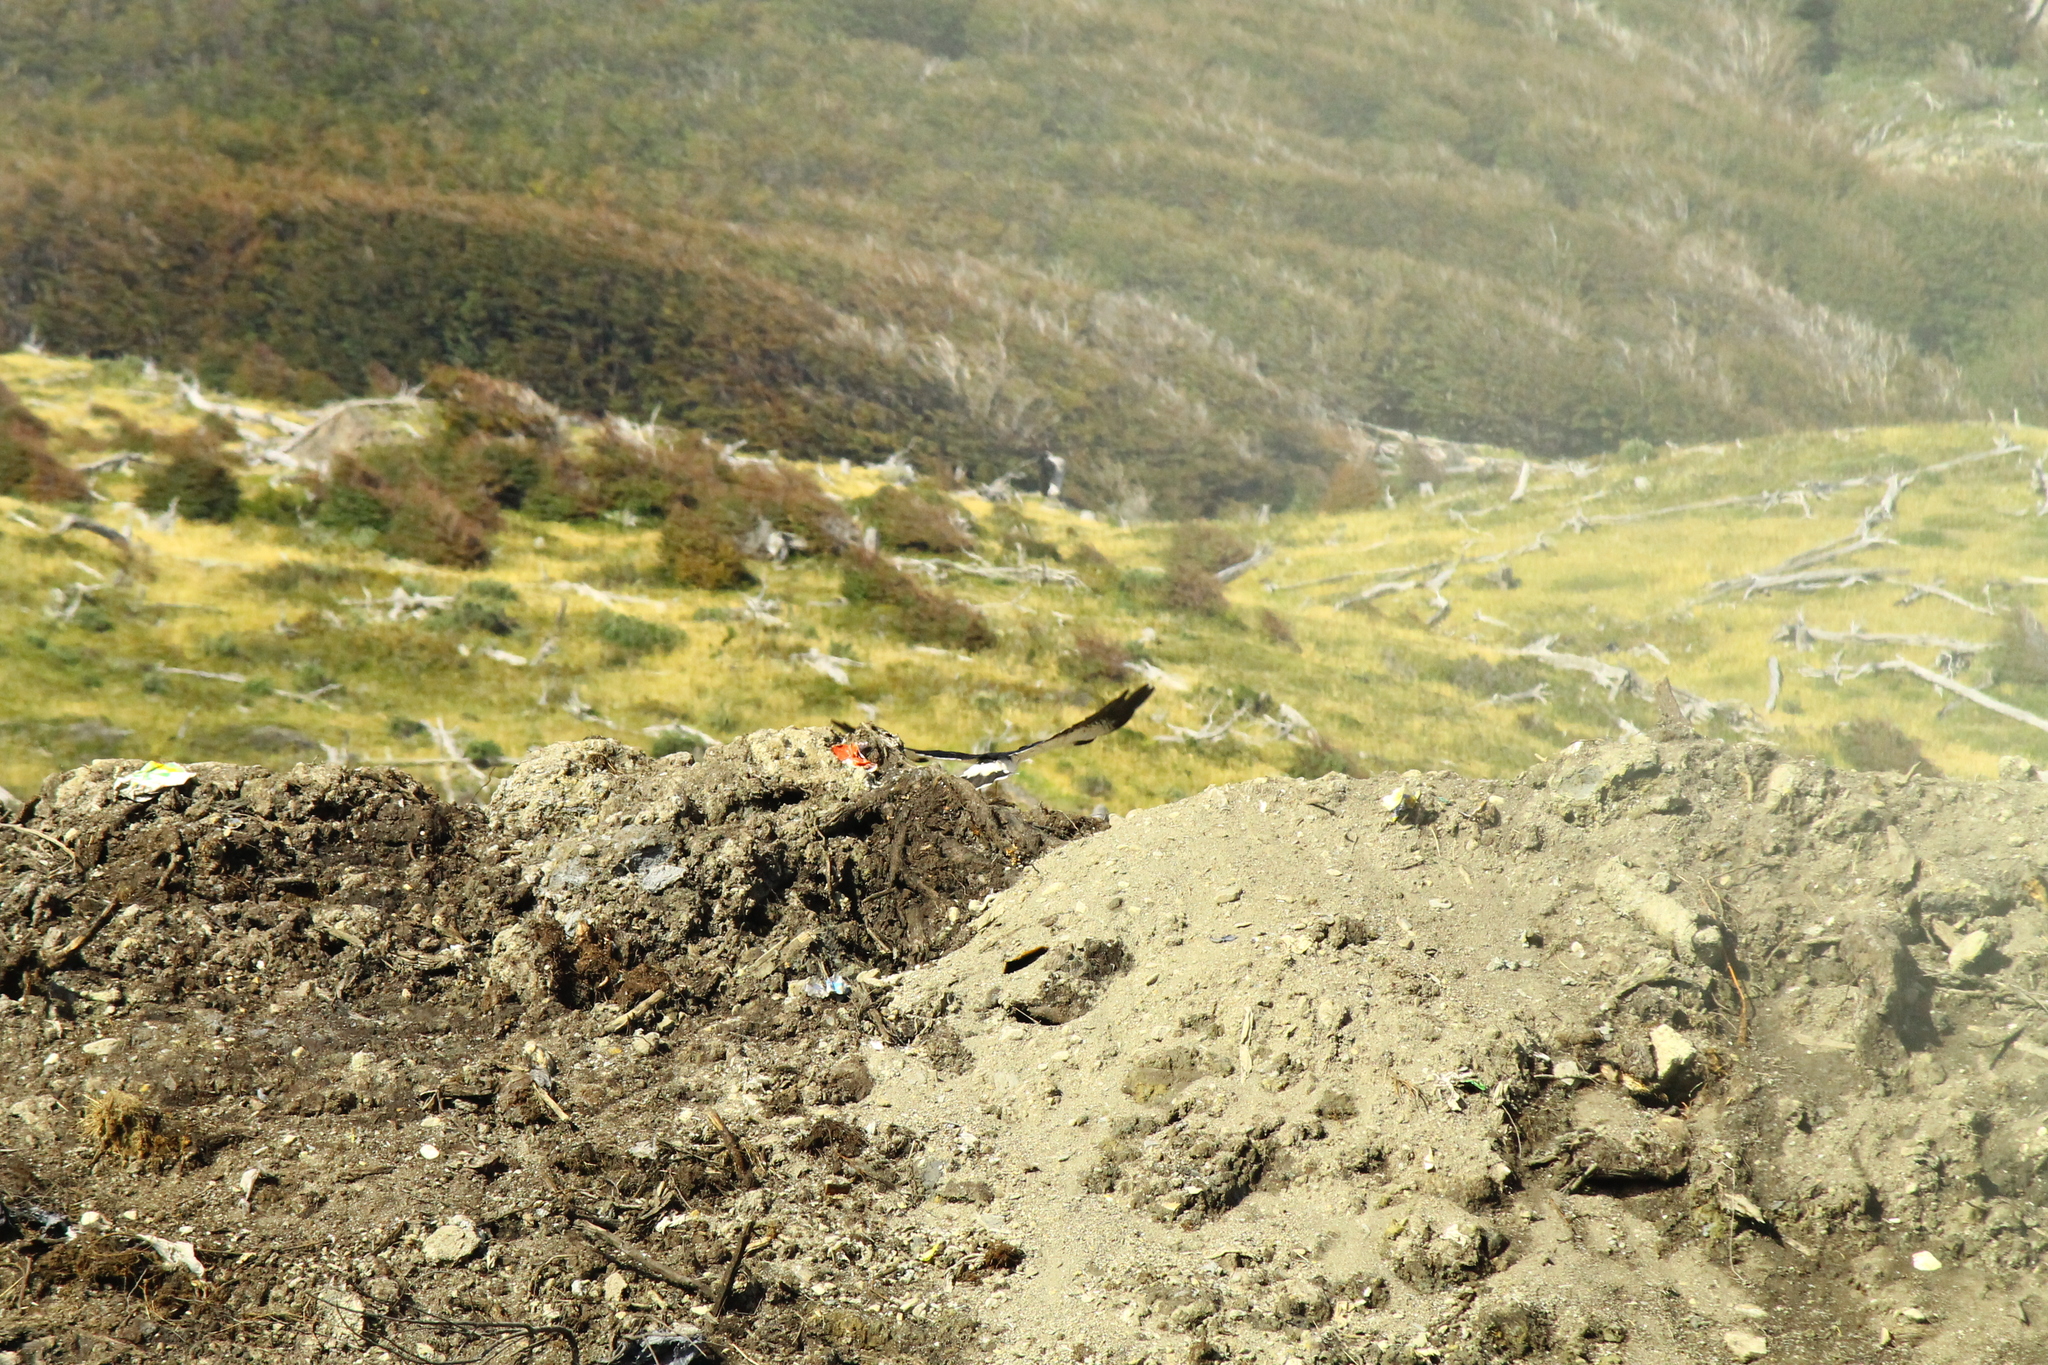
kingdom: Animalia
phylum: Chordata
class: Aves
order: Falconiformes
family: Falconidae
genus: Daptrius
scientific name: Daptrius
